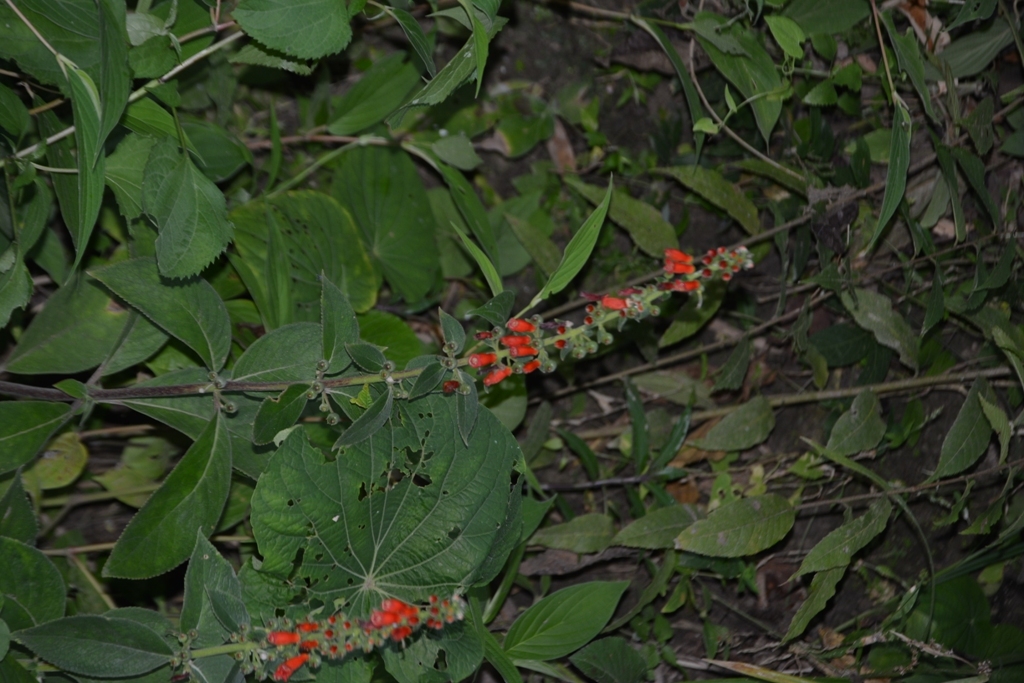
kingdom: Plantae
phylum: Tracheophyta
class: Magnoliopsida
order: Lamiales
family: Gesneriaceae
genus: Kohleria
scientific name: Kohleria spicata
